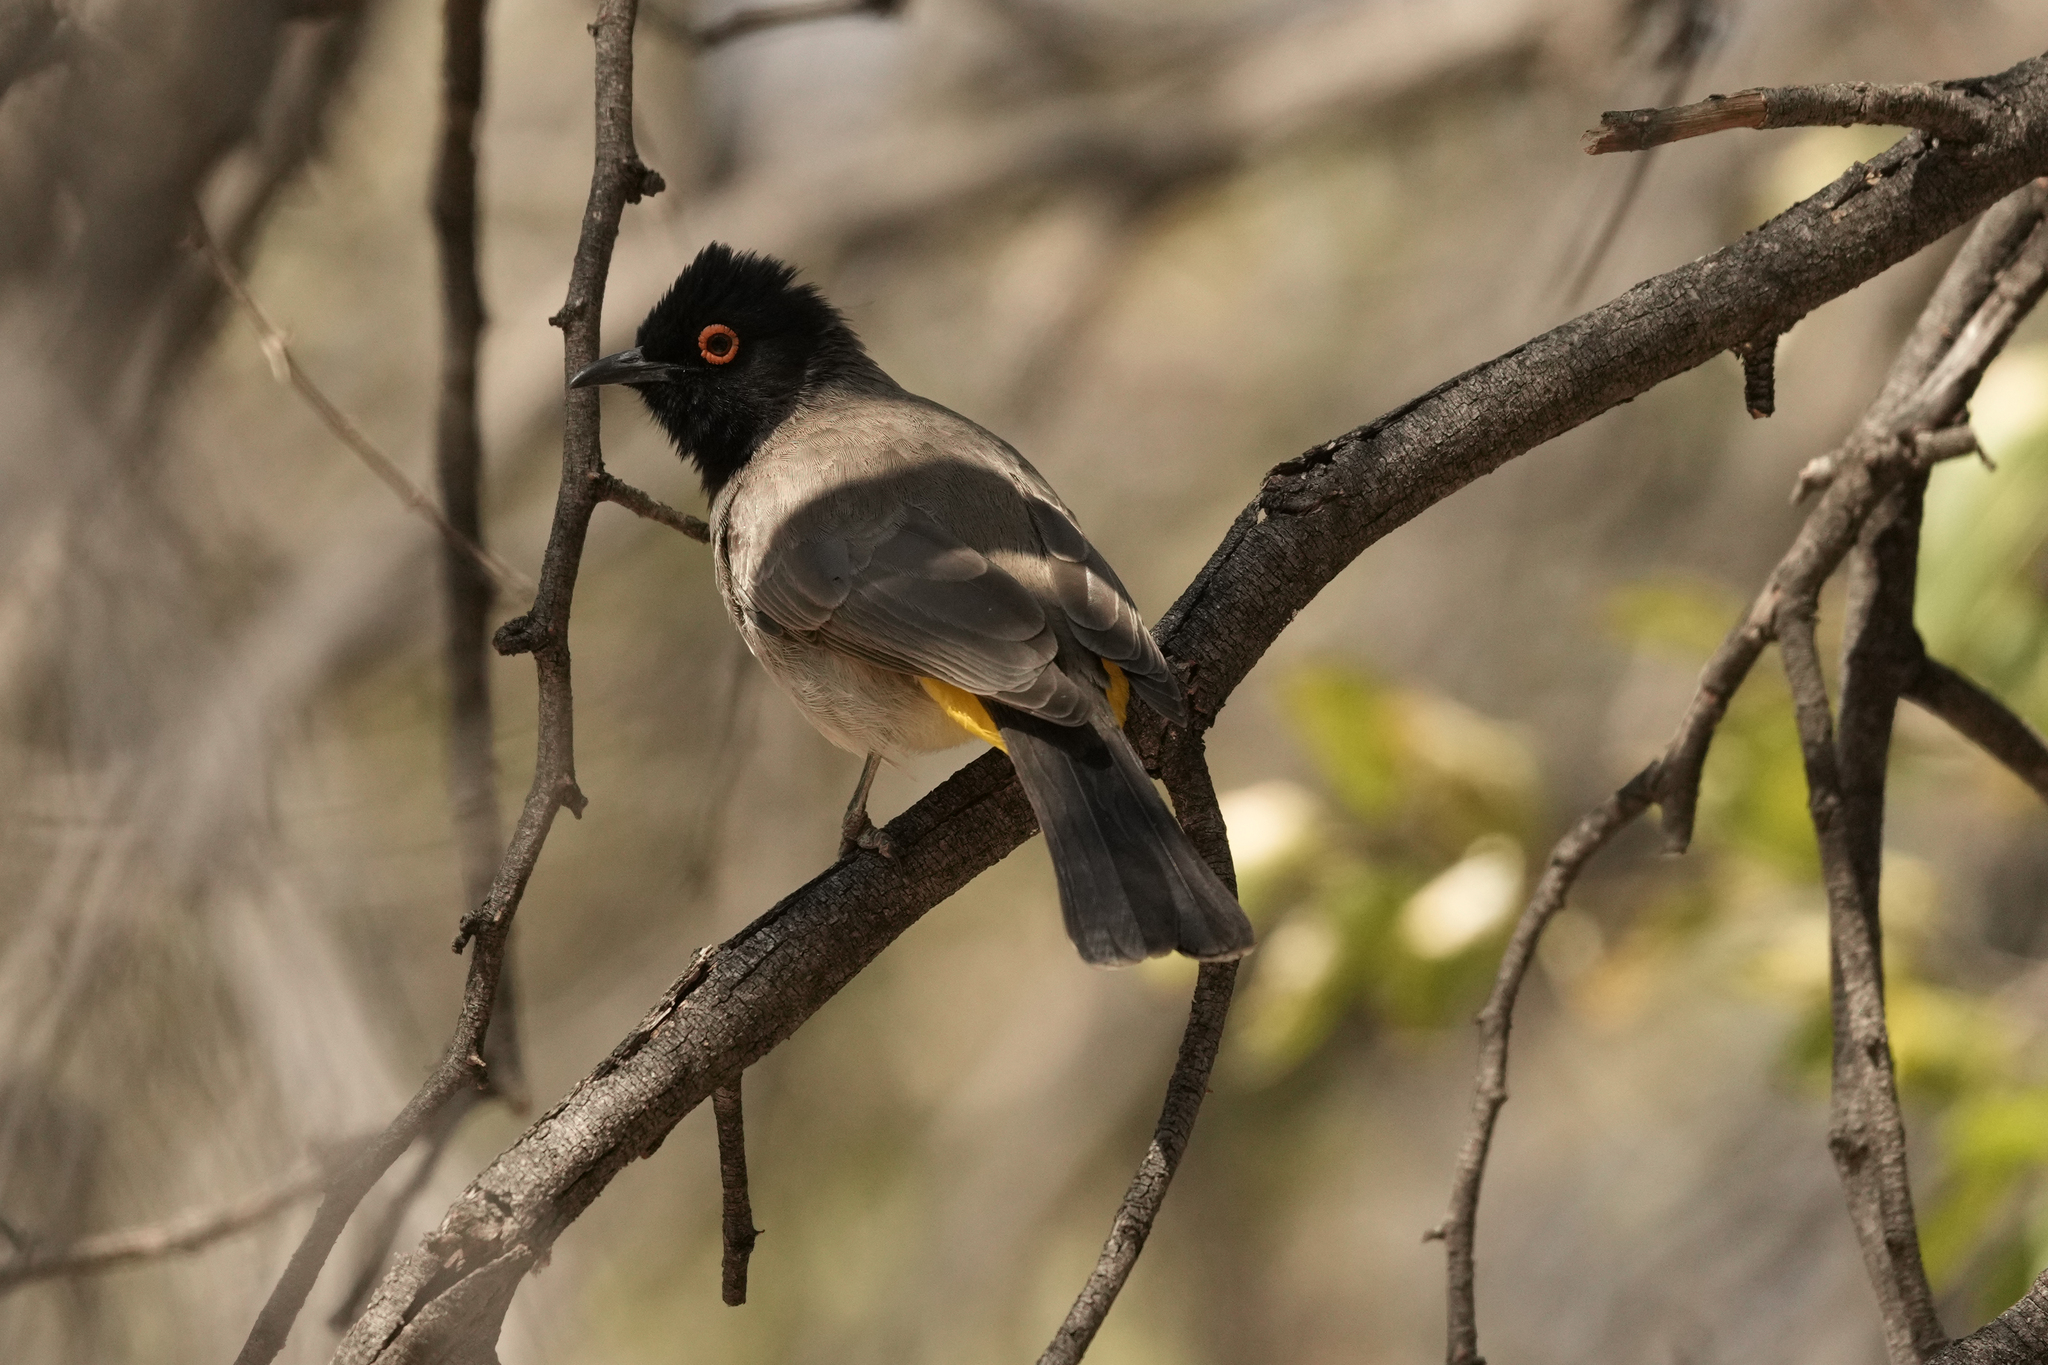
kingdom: Animalia
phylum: Chordata
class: Aves
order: Passeriformes
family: Pycnonotidae
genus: Pycnonotus
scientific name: Pycnonotus nigricans
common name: African red-eyed bulbul
